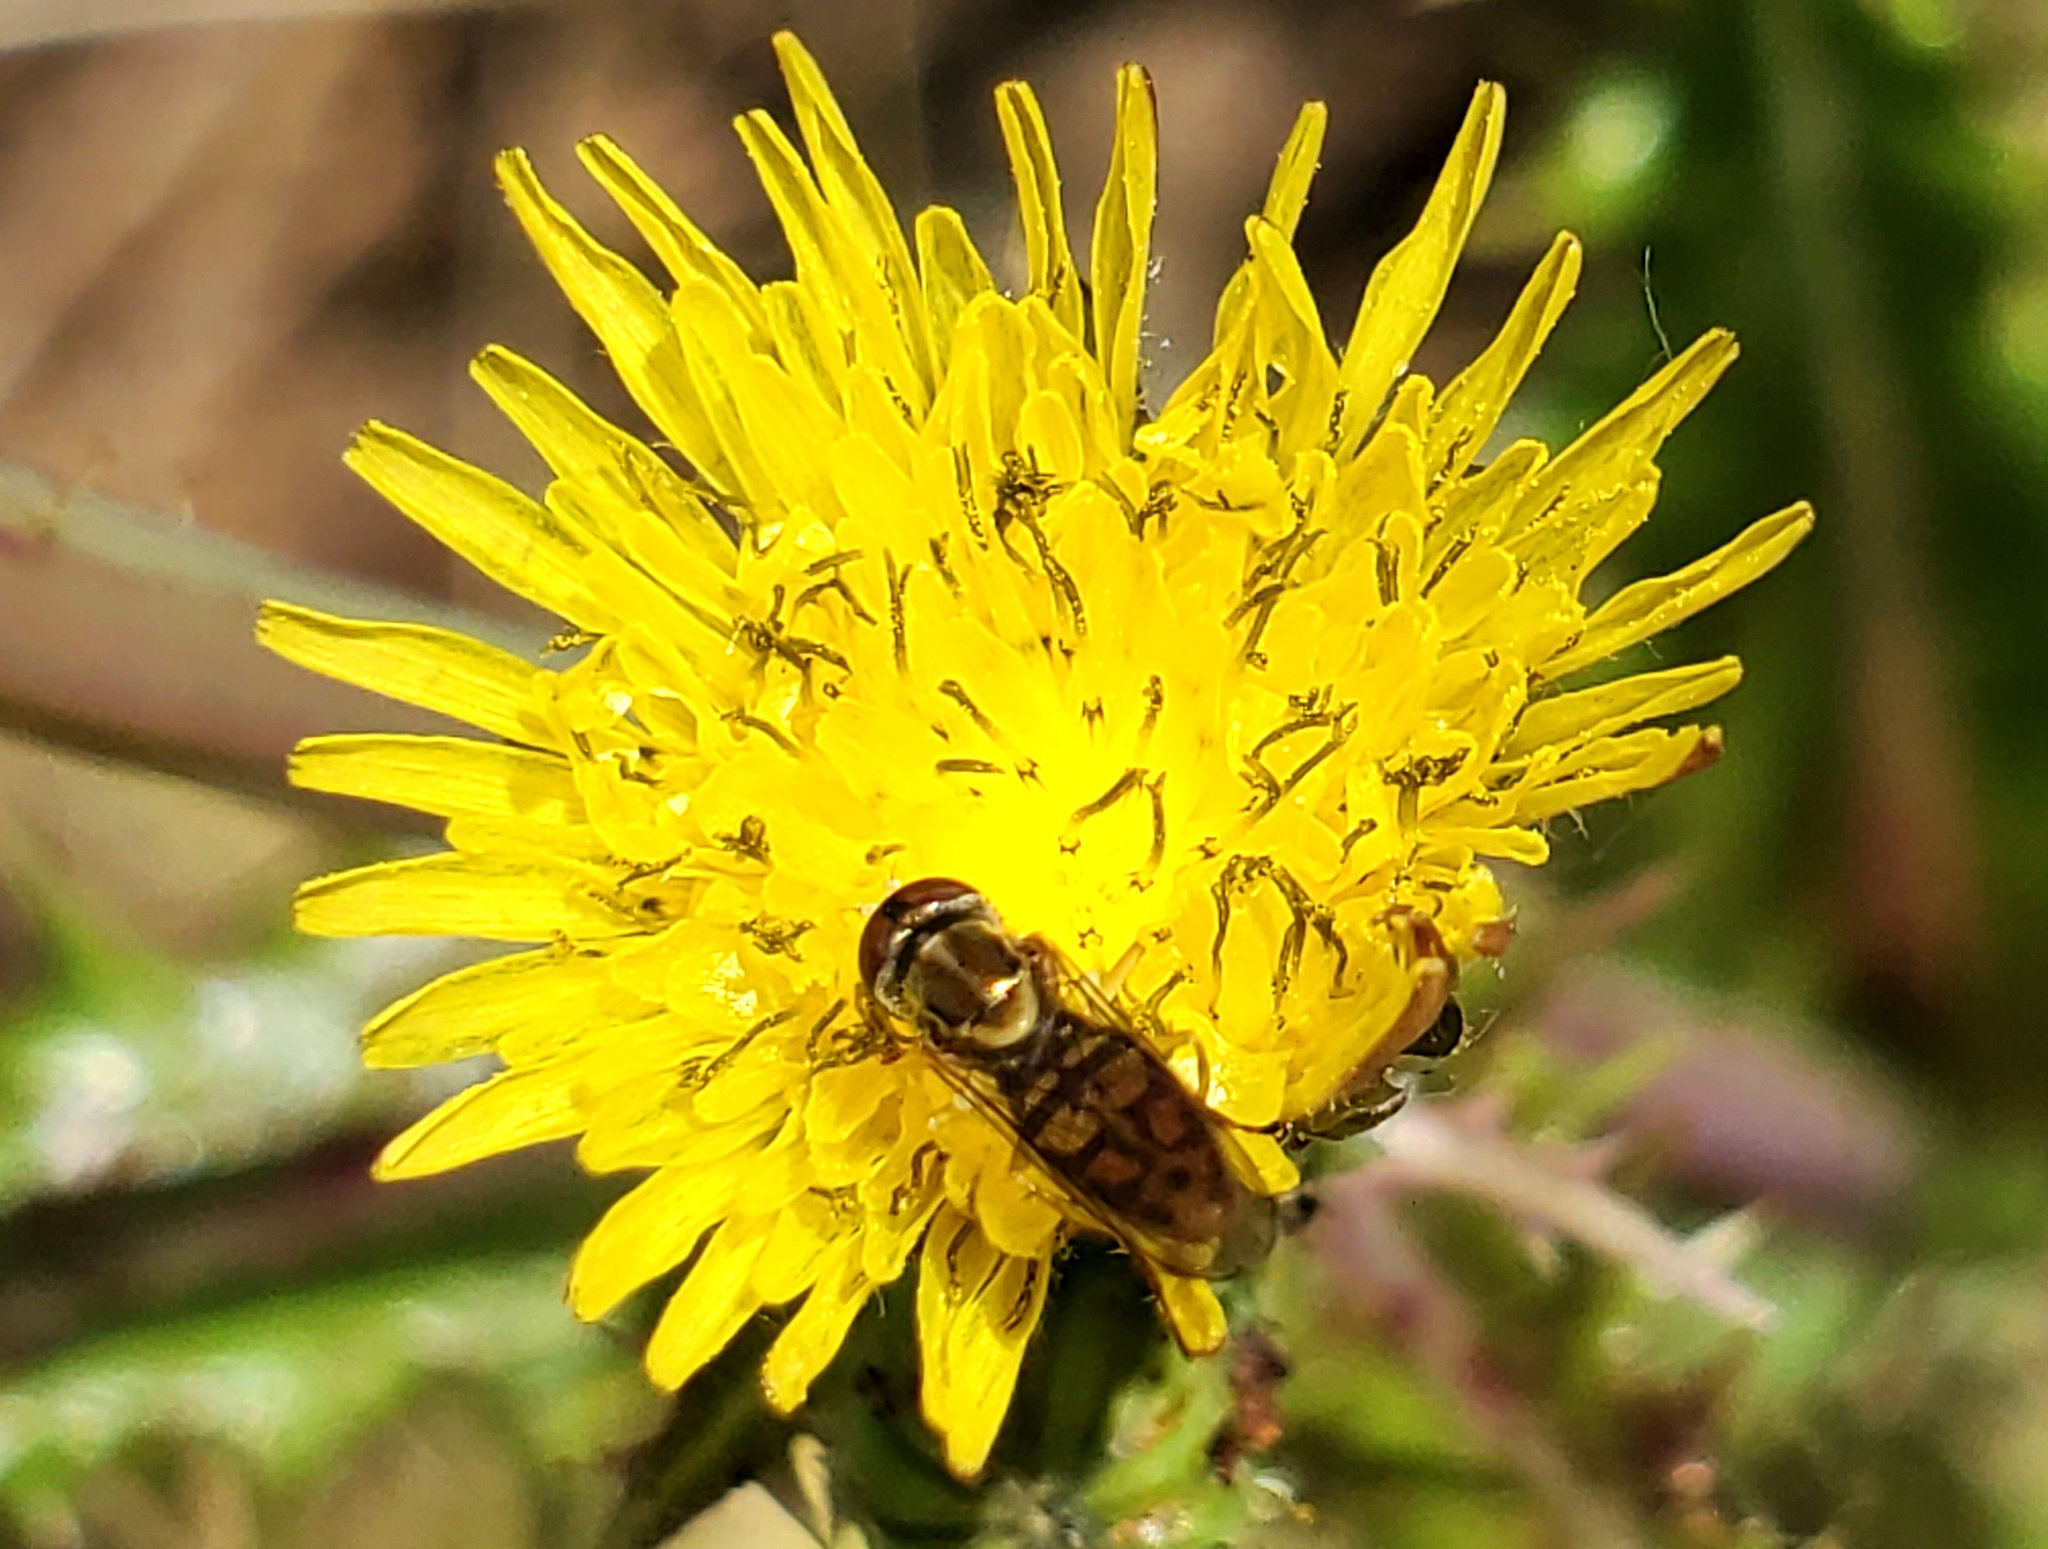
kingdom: Animalia
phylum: Arthropoda
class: Insecta
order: Diptera
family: Syrphidae
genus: Toxomerus
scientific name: Toxomerus marginatus
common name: Syrphid fly
